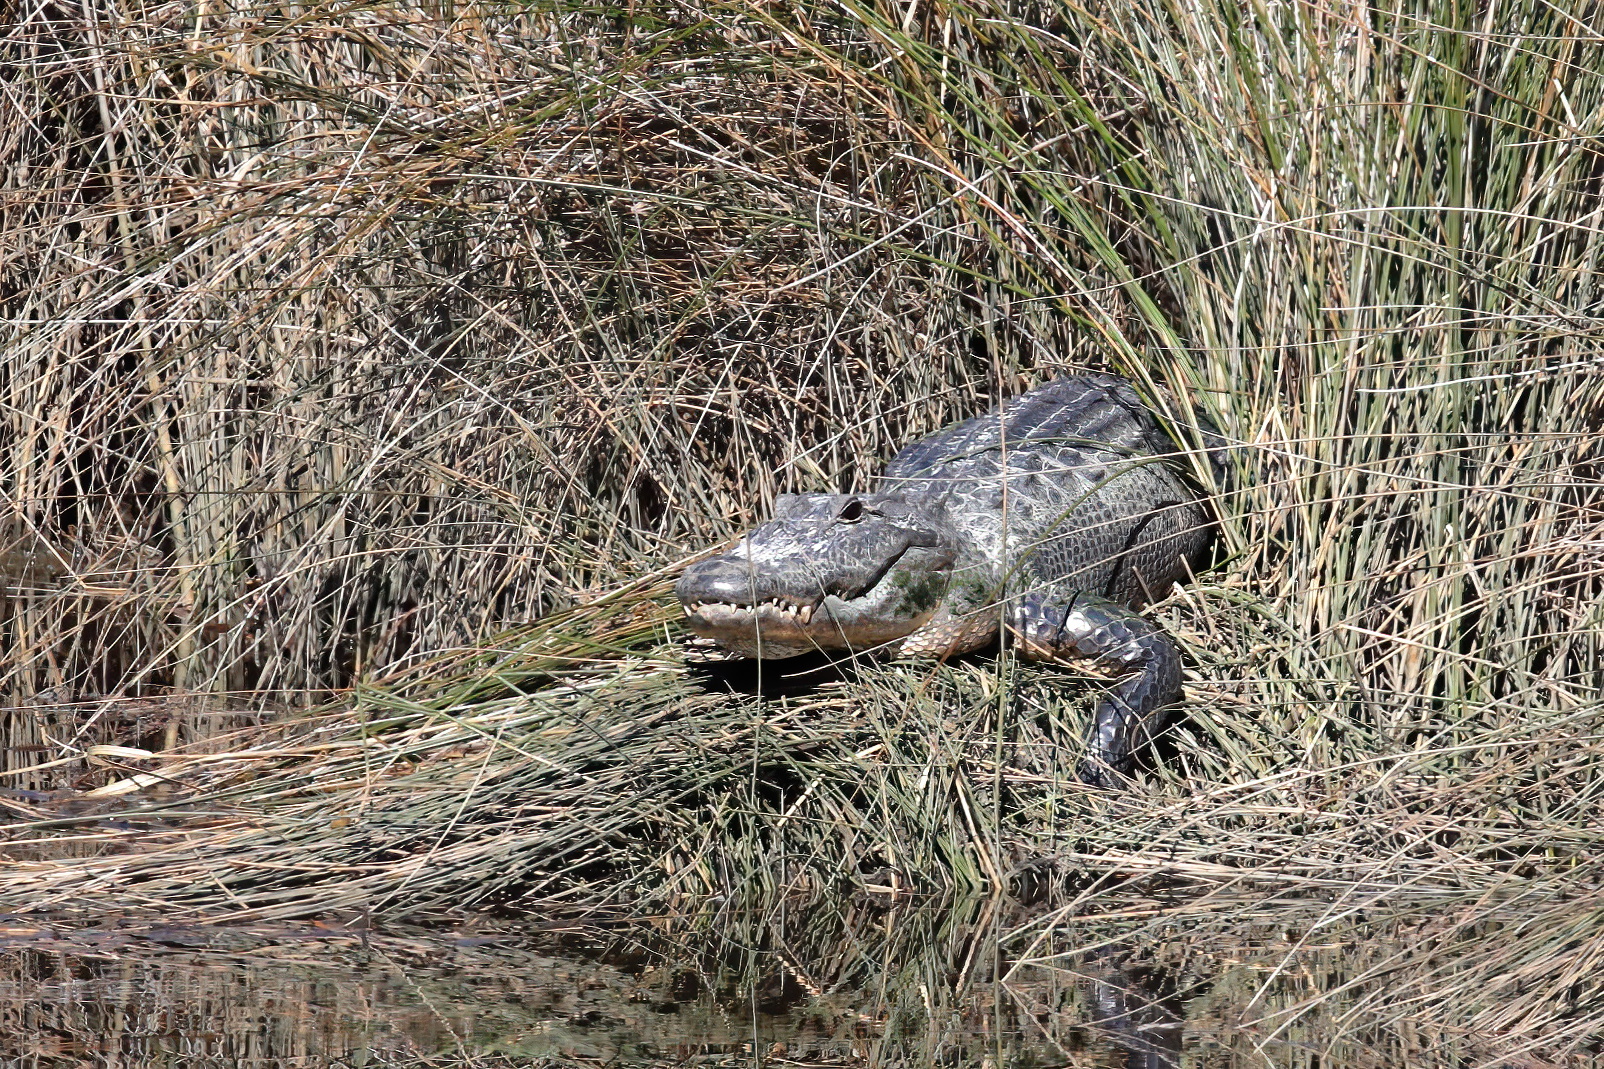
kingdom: Animalia
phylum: Chordata
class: Crocodylia
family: Alligatoridae
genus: Alligator
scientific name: Alligator mississippiensis
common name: American alligator
